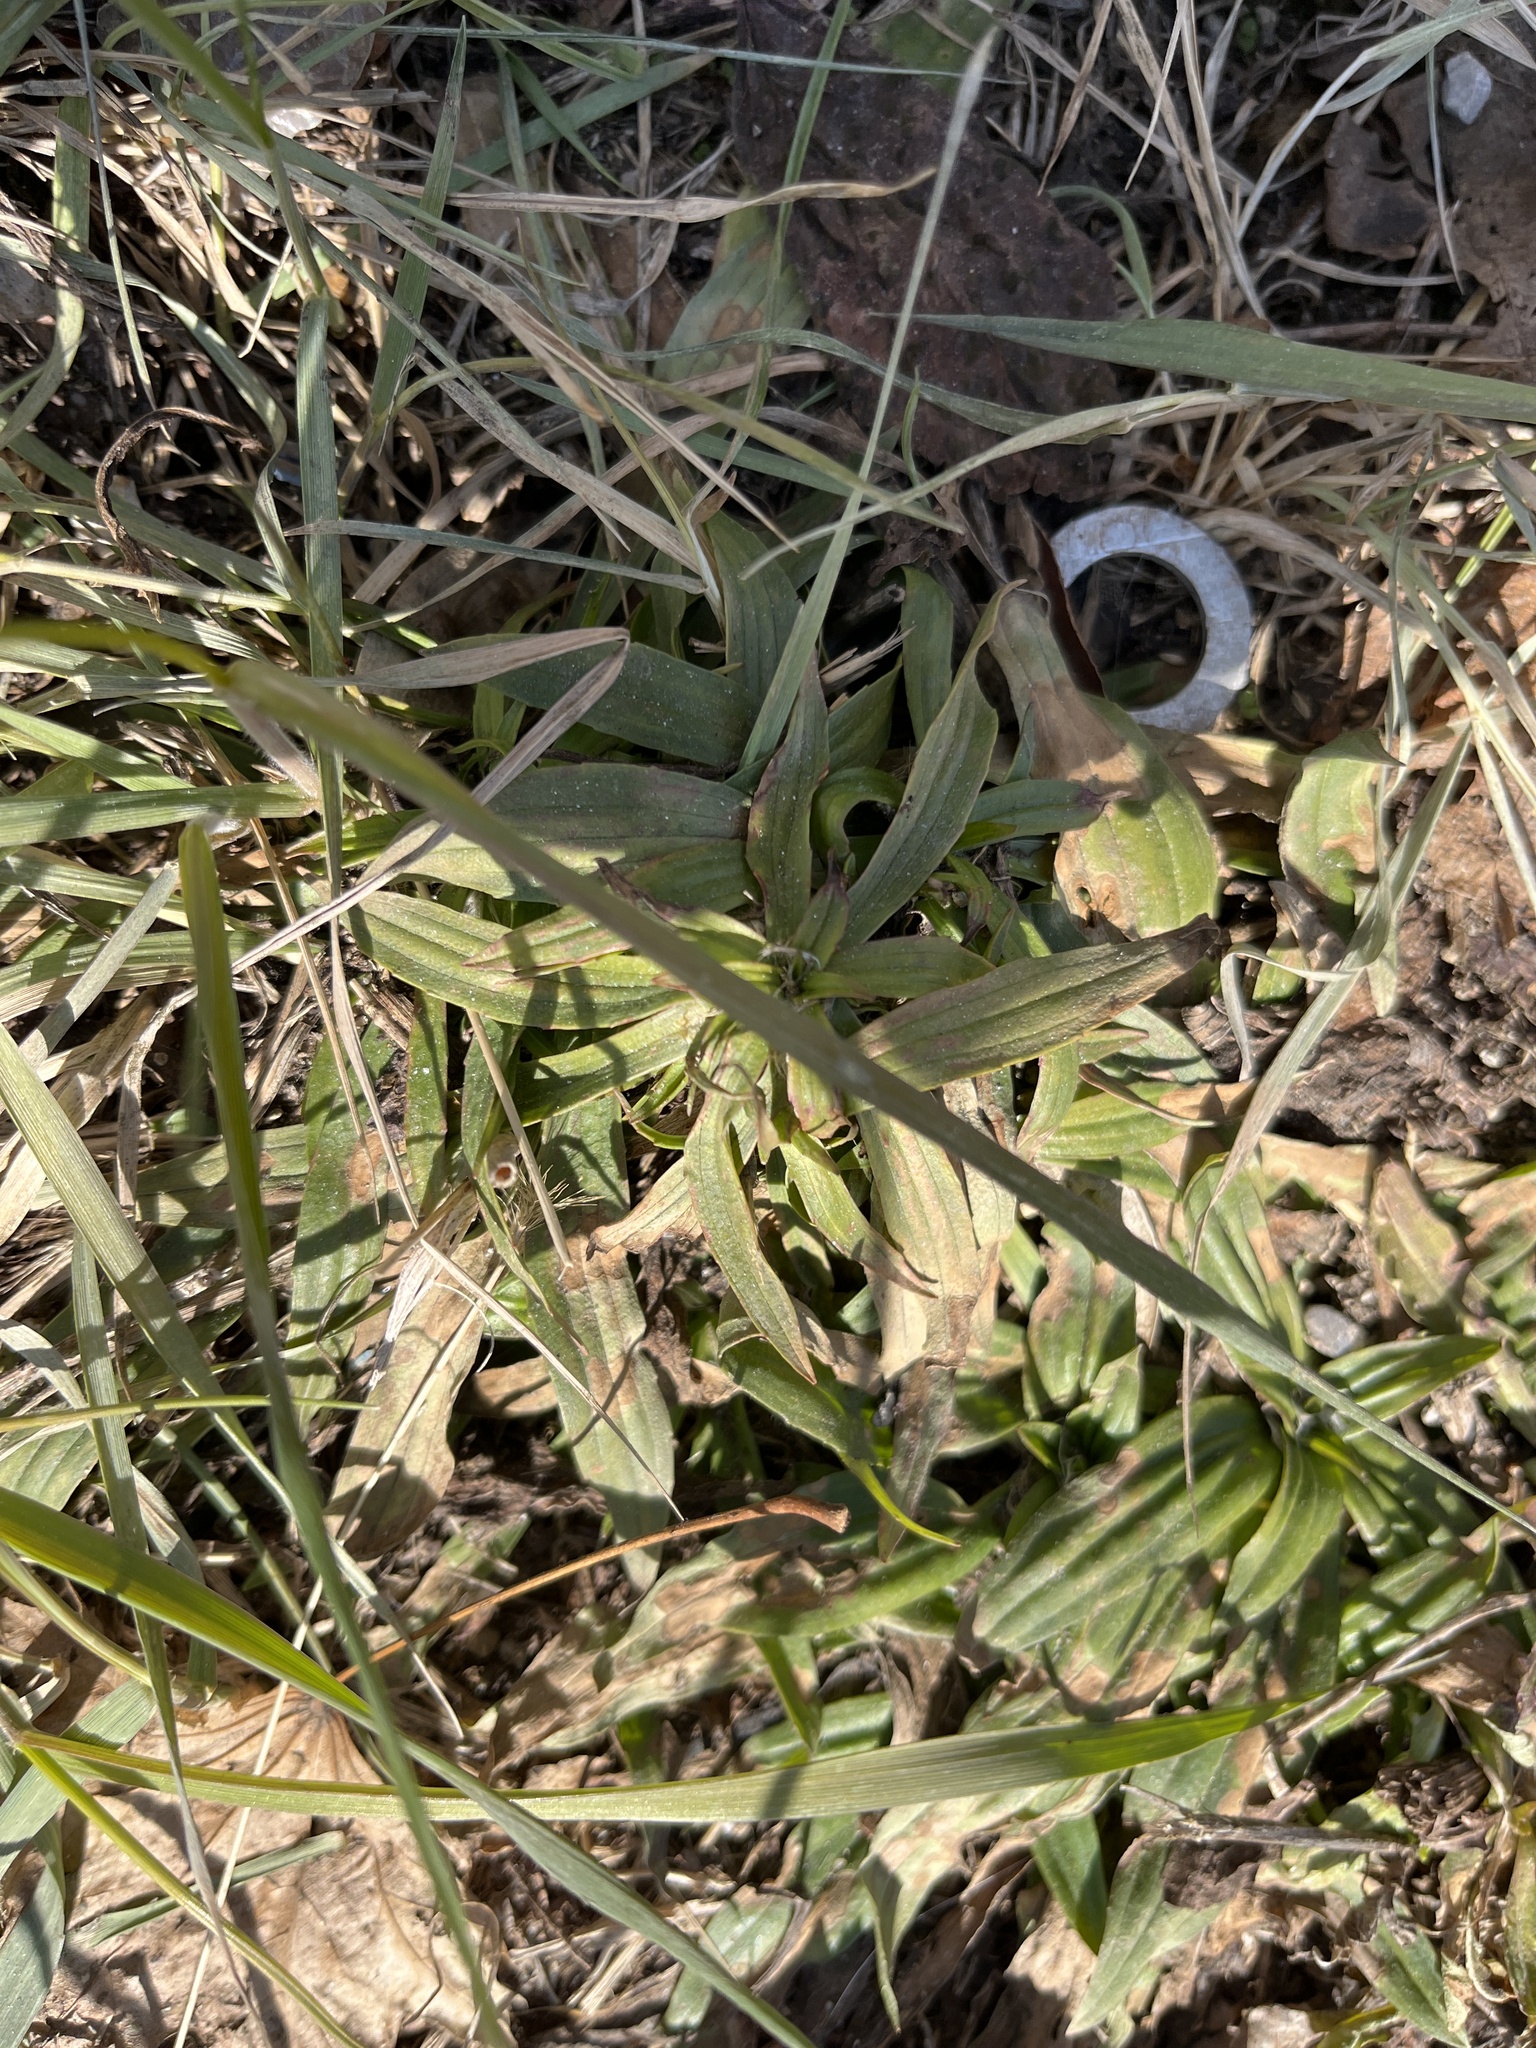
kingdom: Plantae
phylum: Tracheophyta
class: Magnoliopsida
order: Lamiales
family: Plantaginaceae
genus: Plantago
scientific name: Plantago lanceolata
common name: Ribwort plantain
